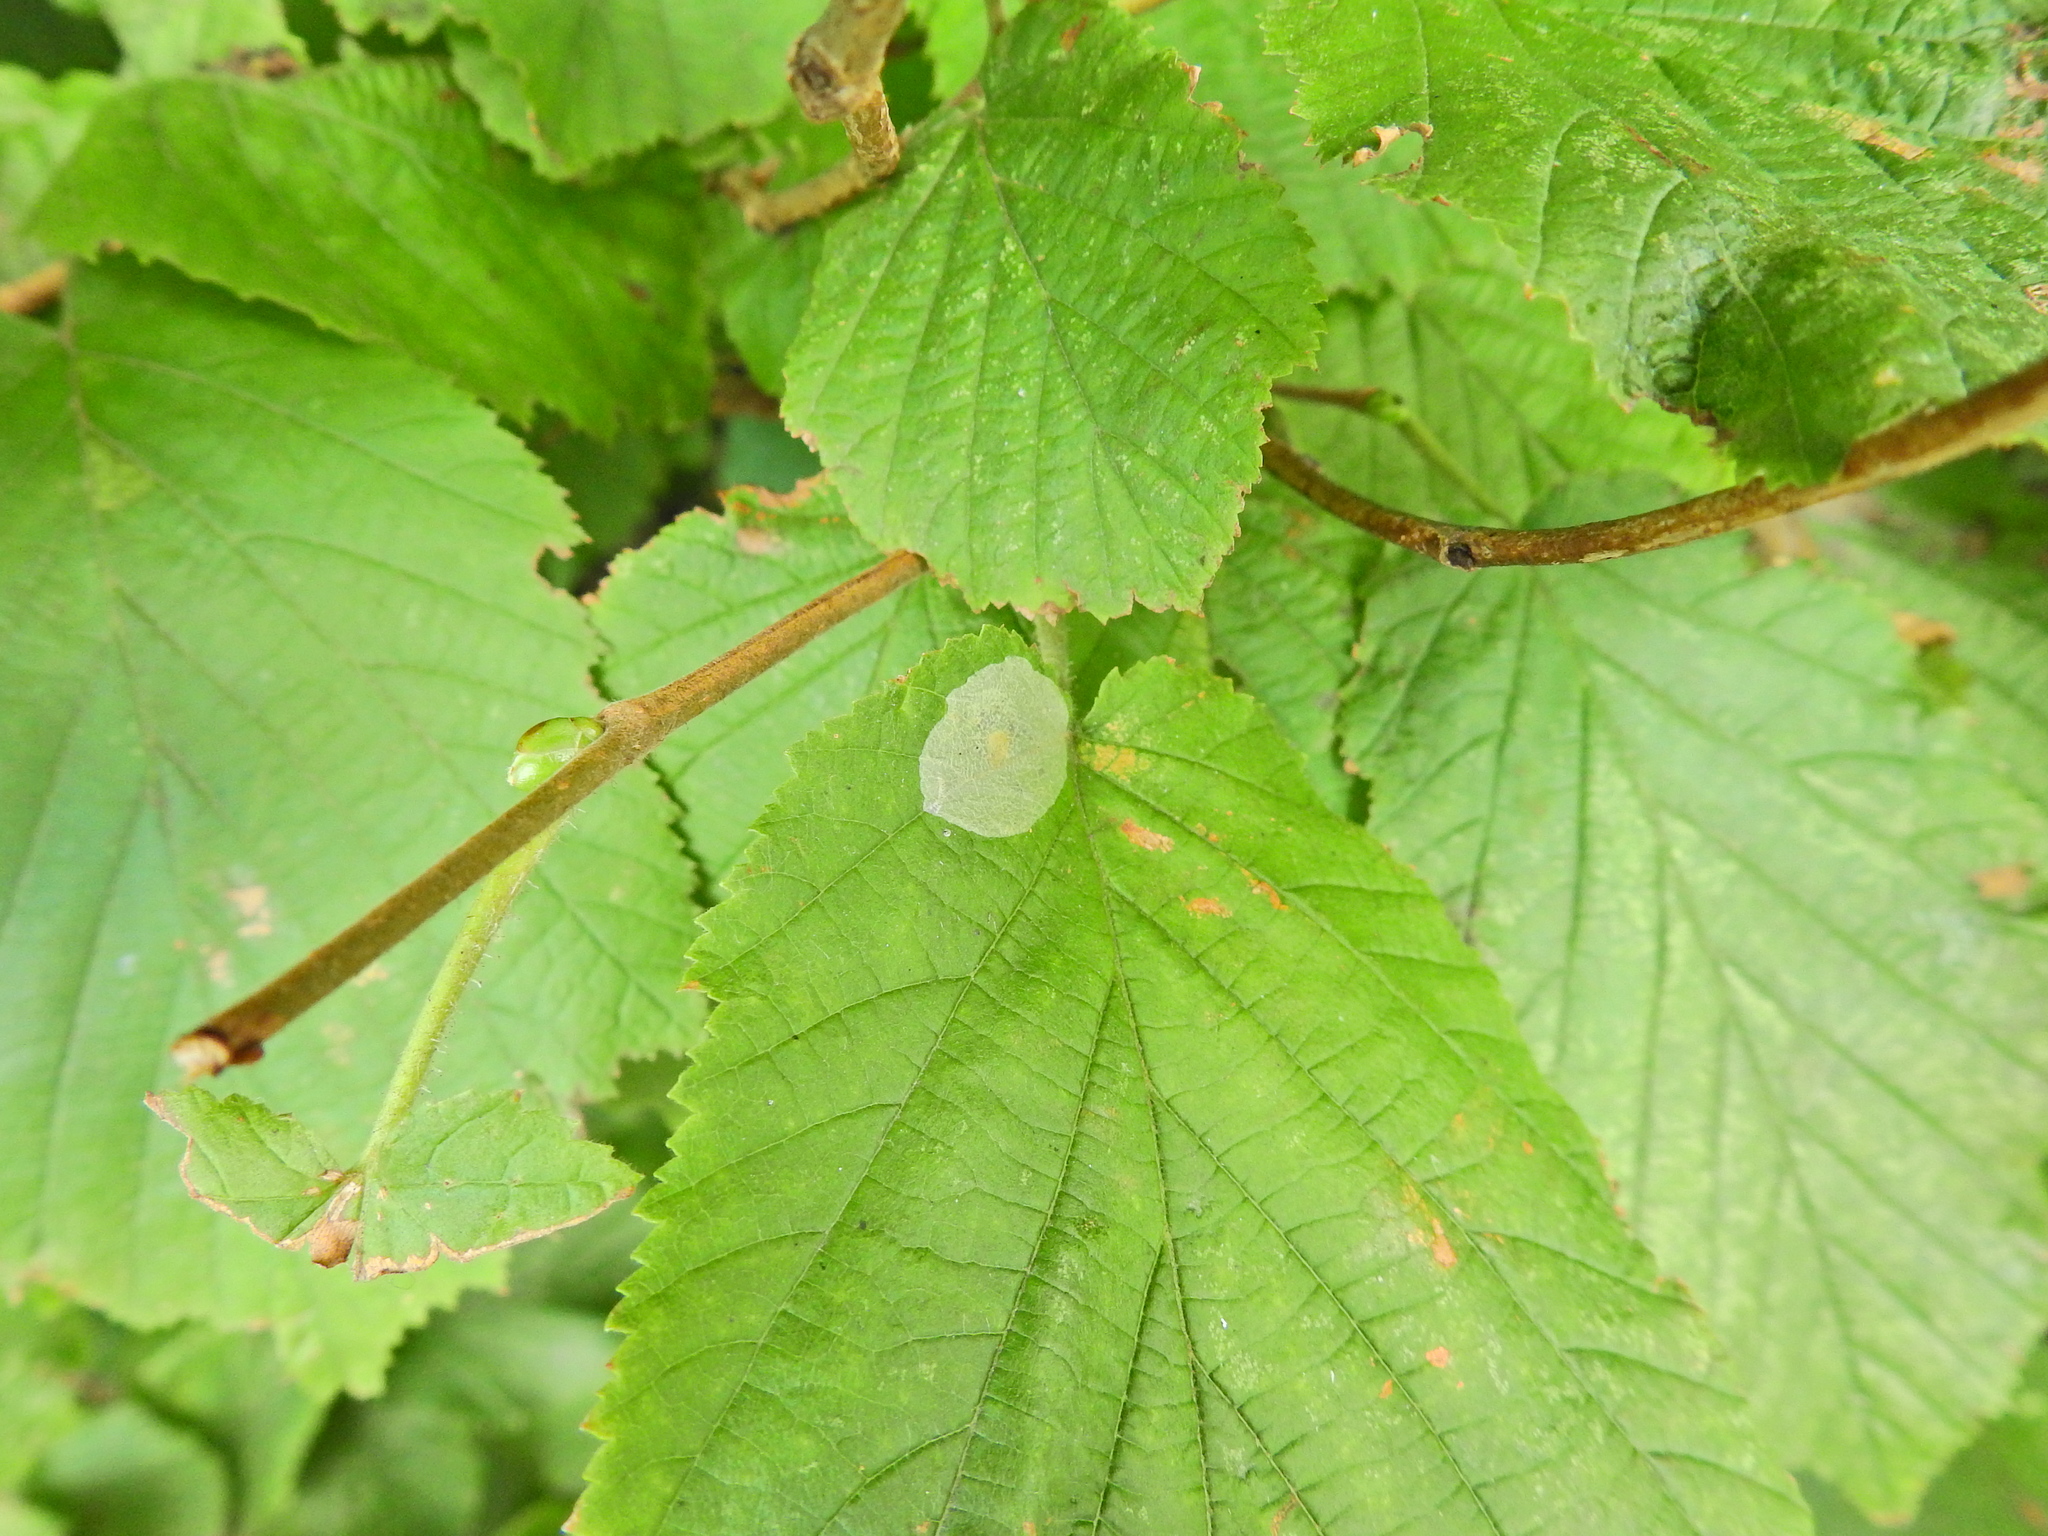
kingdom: Animalia
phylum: Arthropoda
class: Insecta
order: Lepidoptera
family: Gracillariidae
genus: Phyllonorycter
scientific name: Phyllonorycter coryli
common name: Nut-leaf blister moth
